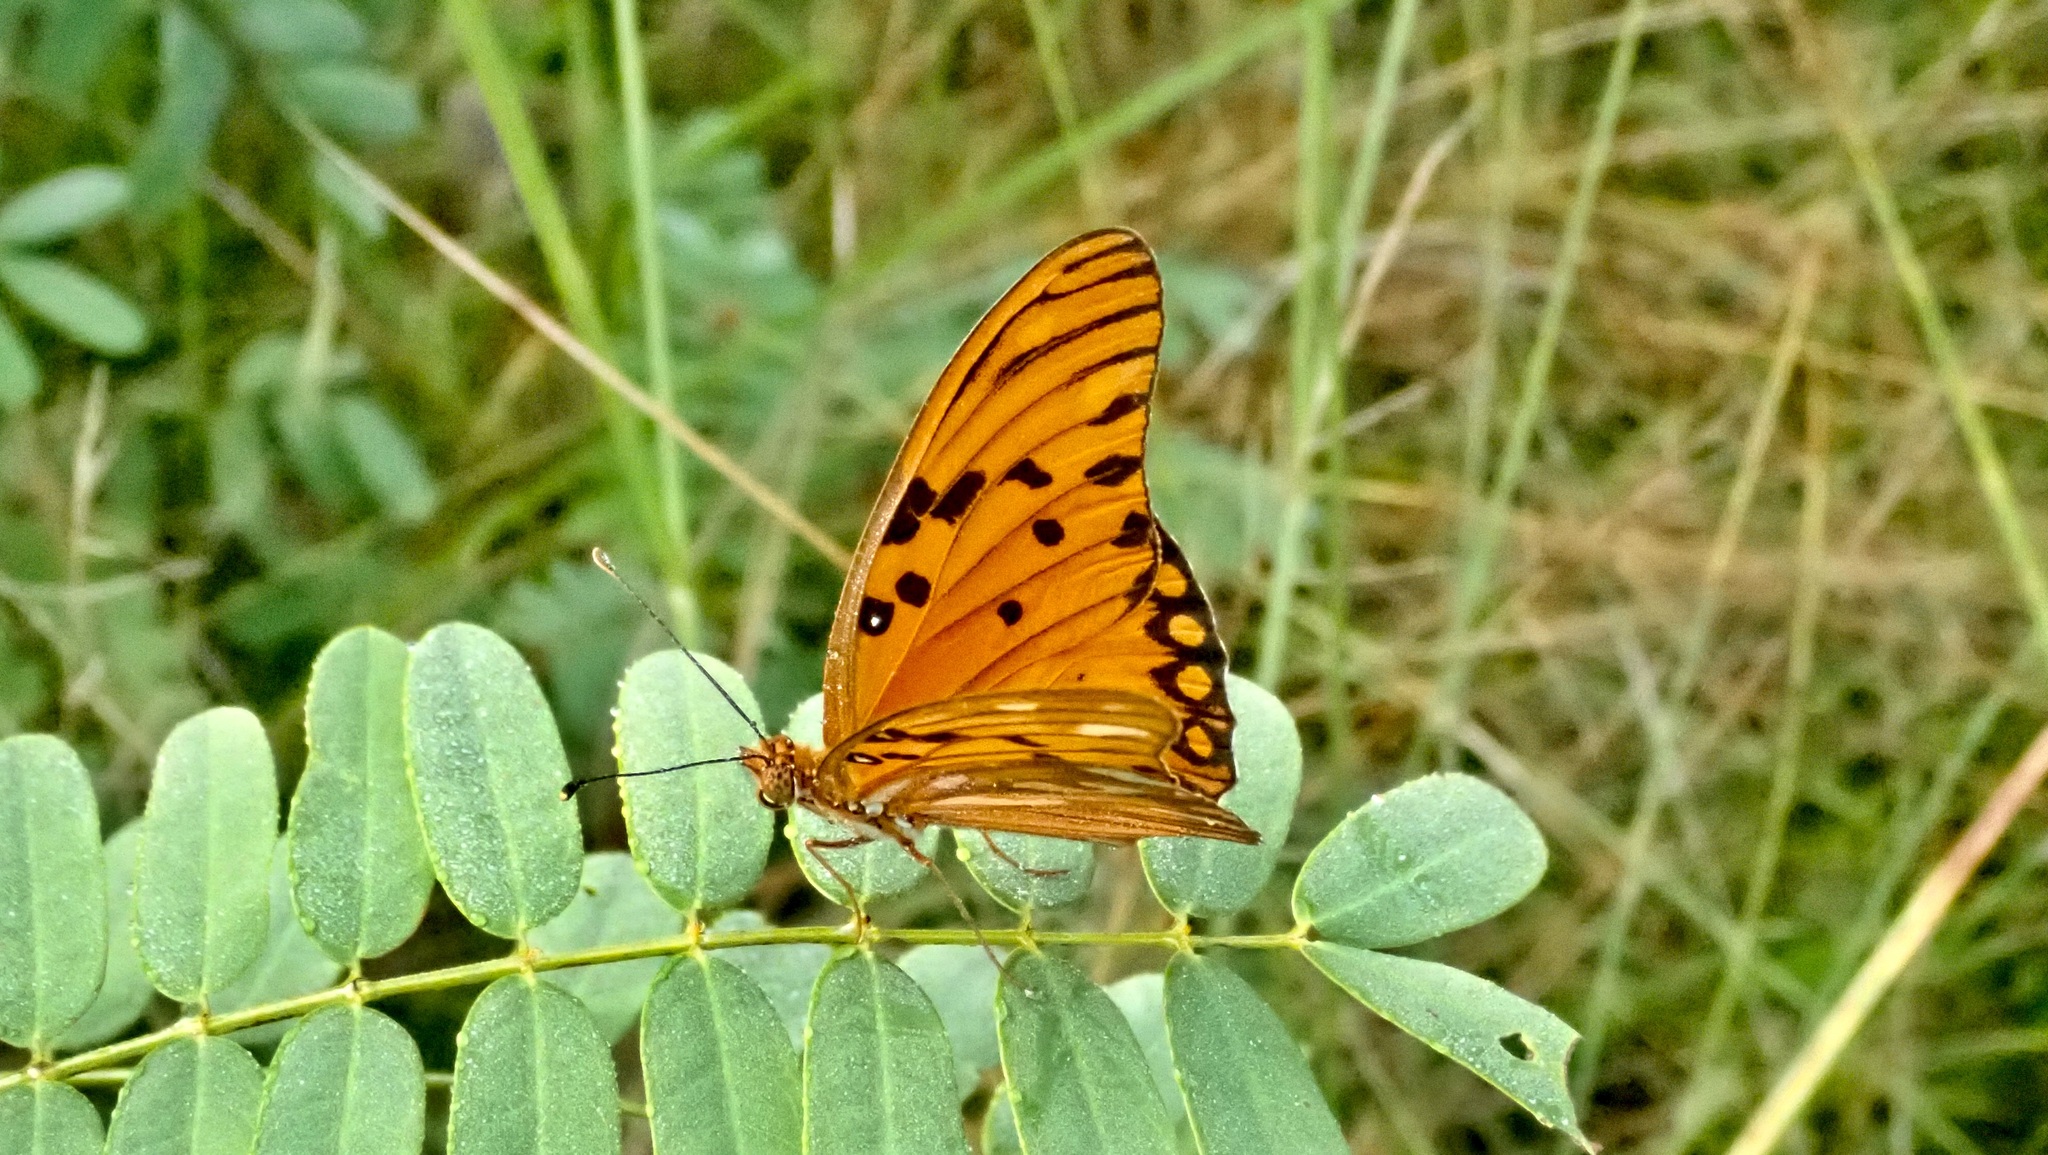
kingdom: Animalia
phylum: Arthropoda
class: Insecta
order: Lepidoptera
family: Nymphalidae
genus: Dione
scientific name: Dione vanillae
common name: Gulf fritillary
